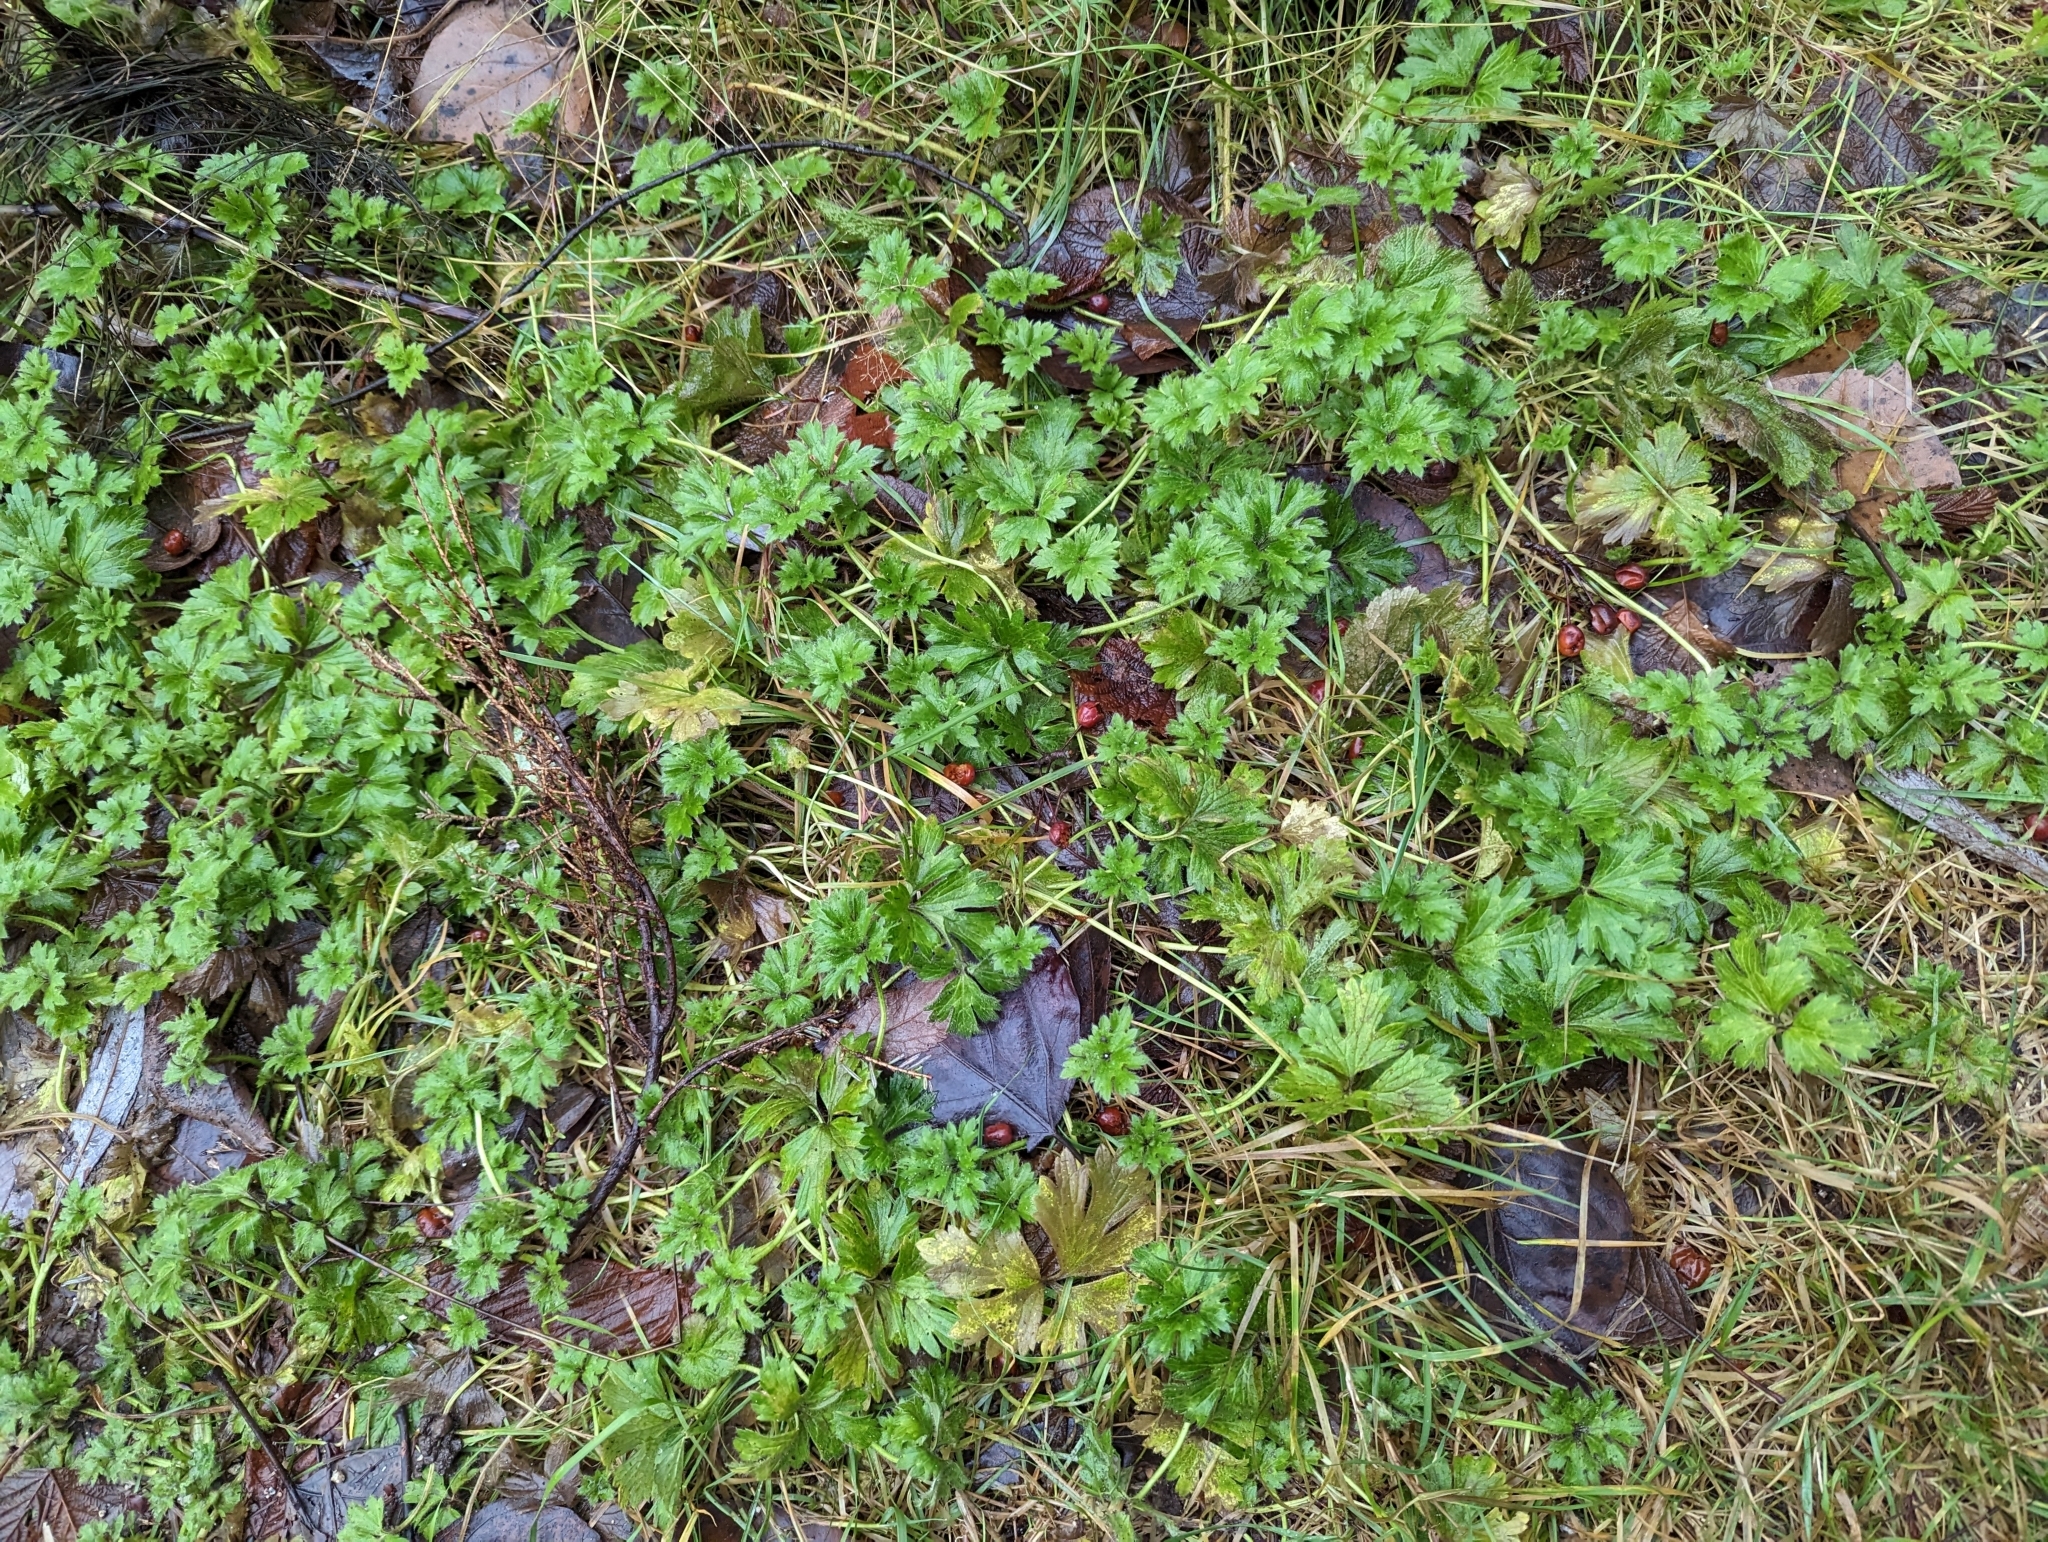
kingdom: Plantae
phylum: Tracheophyta
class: Magnoliopsida
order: Ranunculales
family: Ranunculaceae
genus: Ranunculus
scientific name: Ranunculus repens
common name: Creeping buttercup
